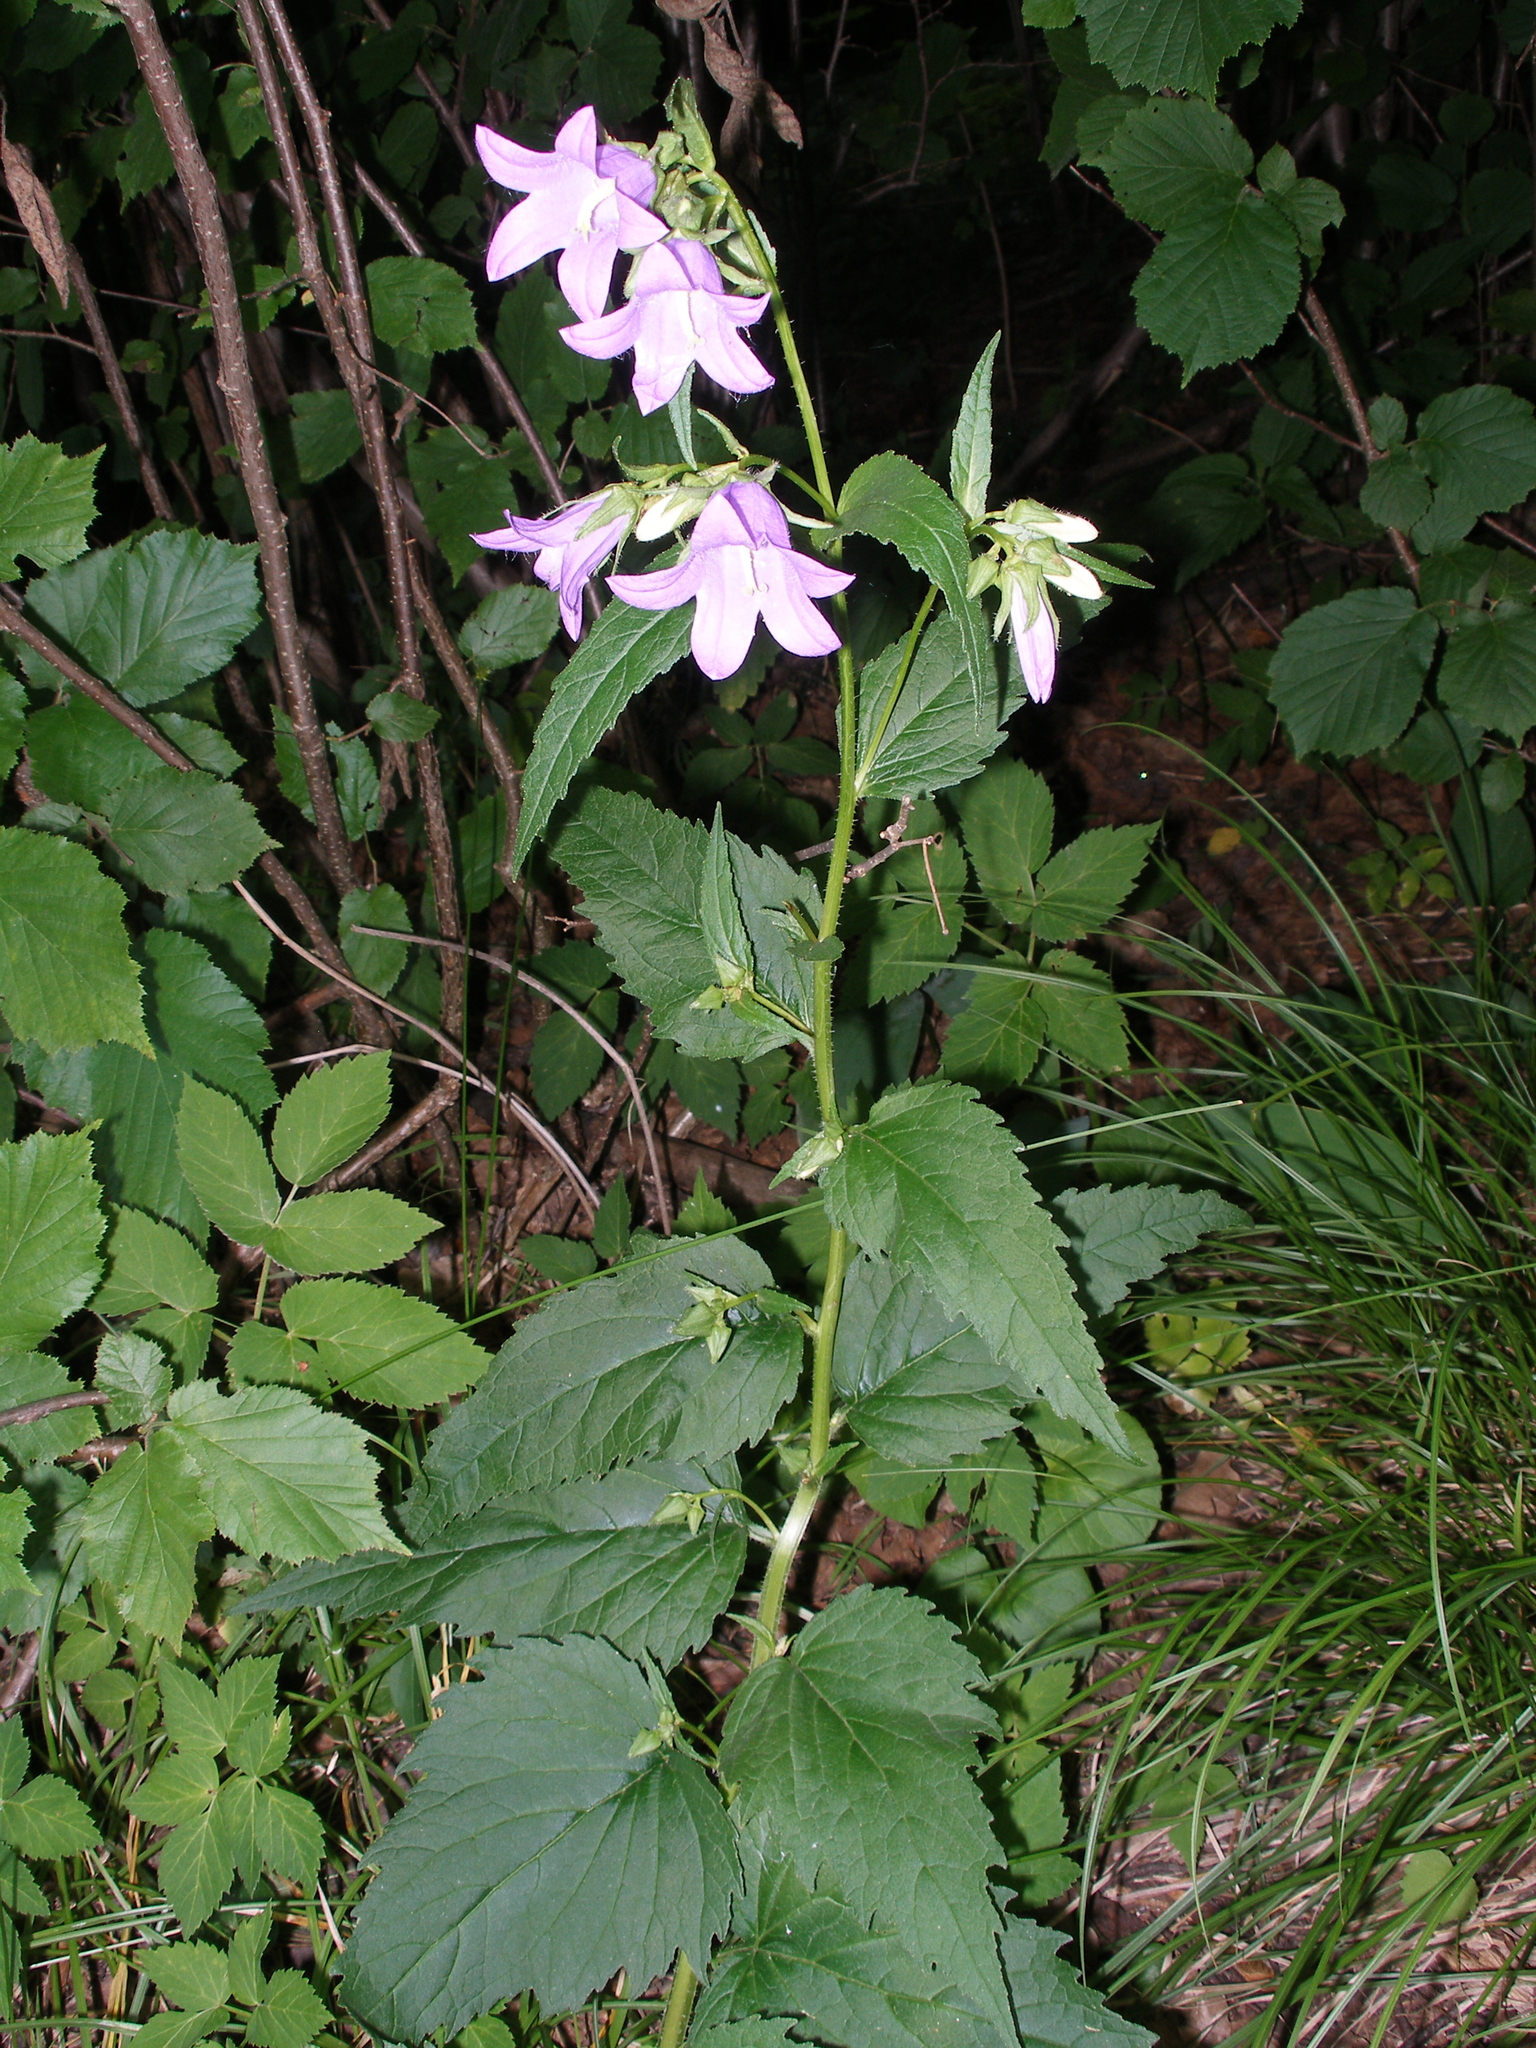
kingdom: Plantae
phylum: Tracheophyta
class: Magnoliopsida
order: Asterales
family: Campanulaceae
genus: Campanula
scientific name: Campanula trachelium
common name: Nettle-leaved bellflower
